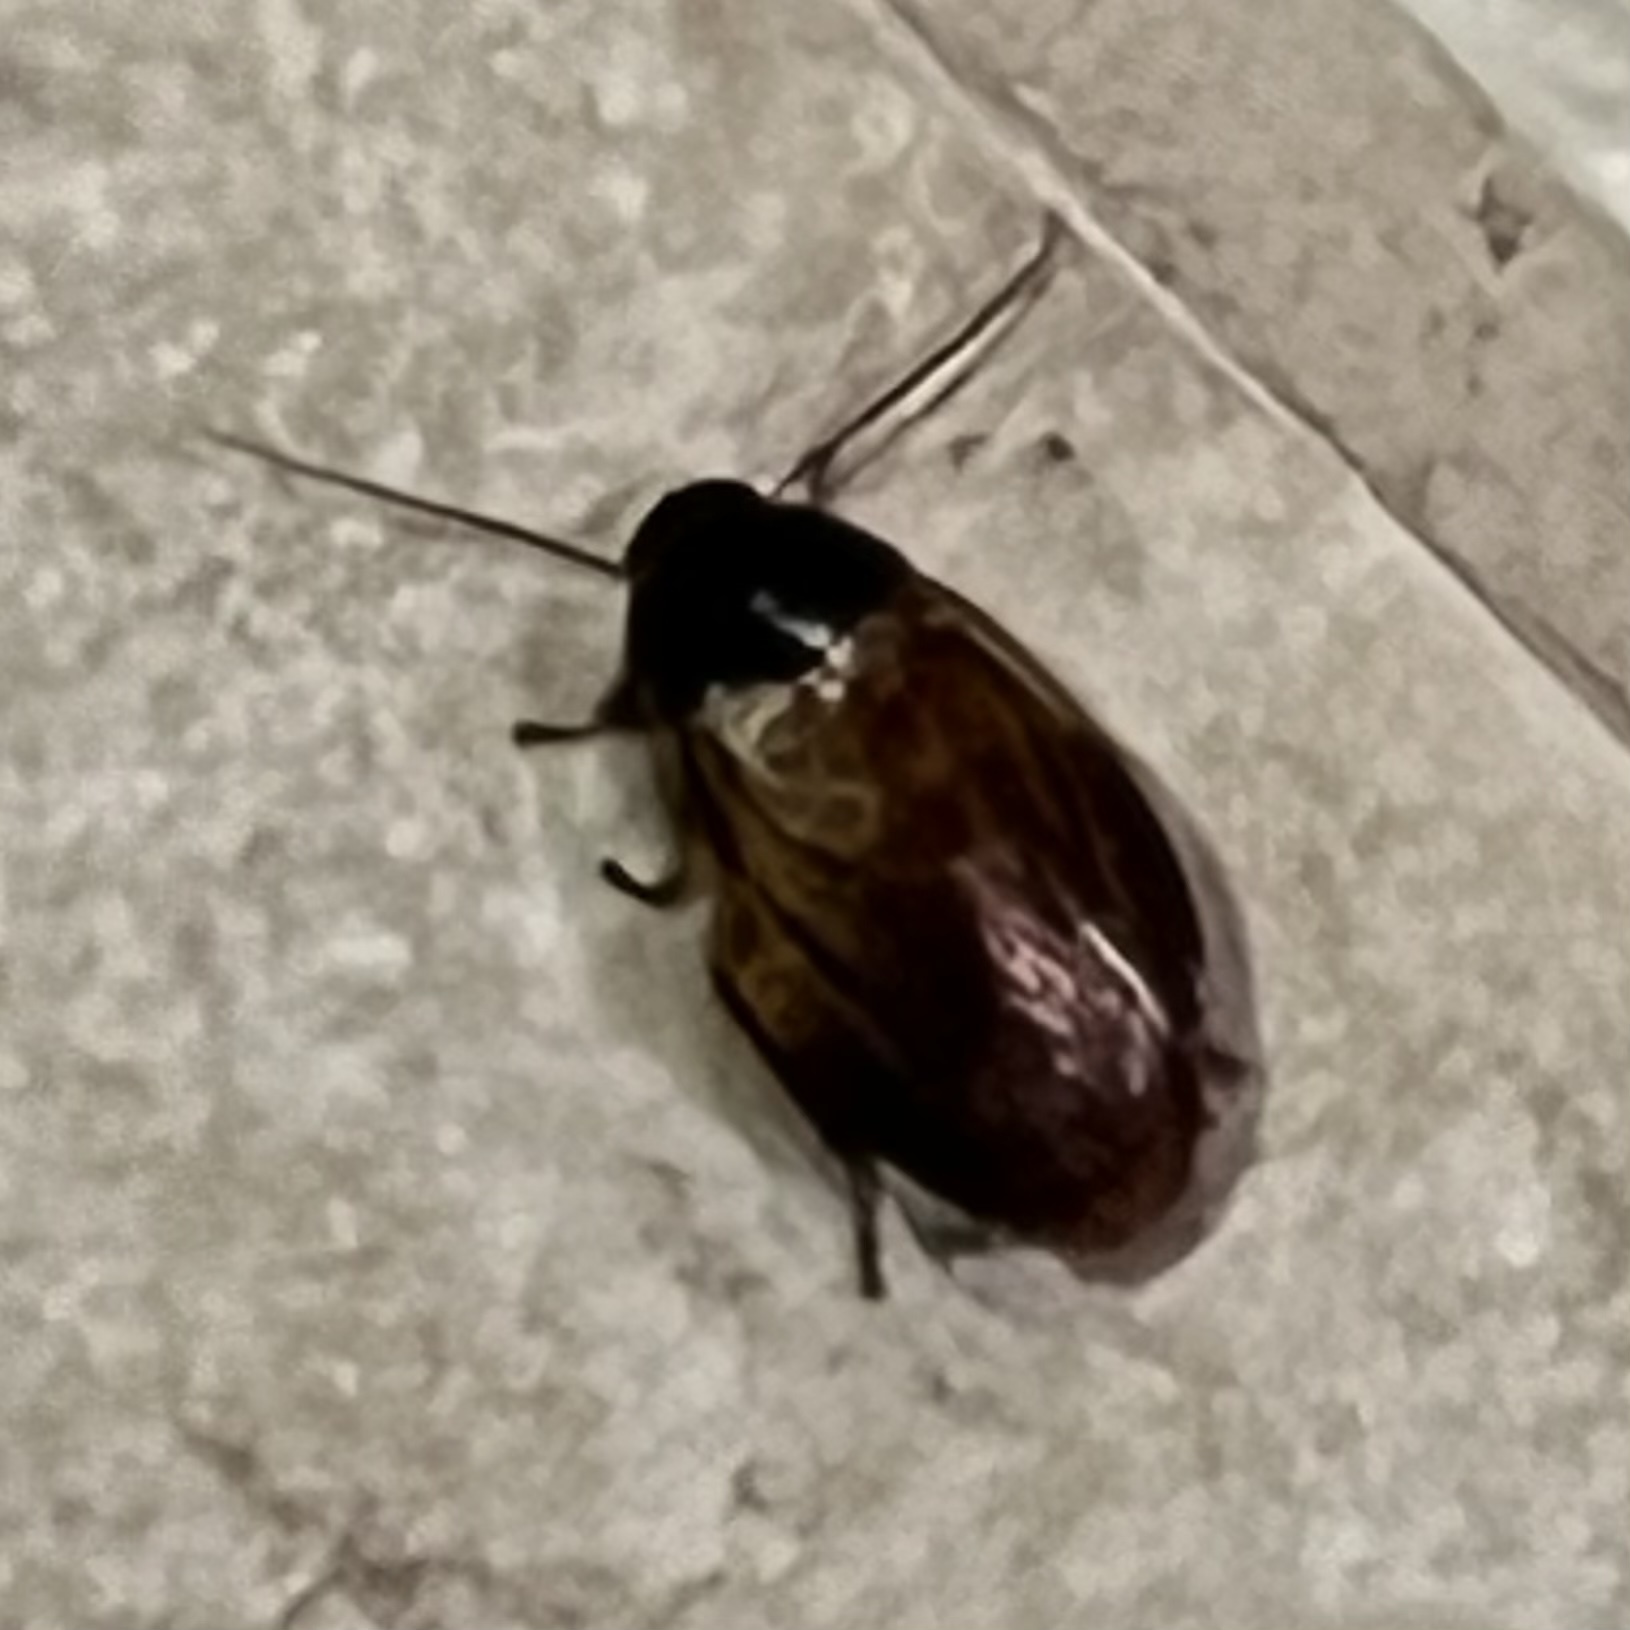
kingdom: Animalia
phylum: Arthropoda
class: Insecta
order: Blattodea
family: Blaberidae
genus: Pycnoscelus
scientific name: Pycnoscelus surinamensis
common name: Surinam cockroach
